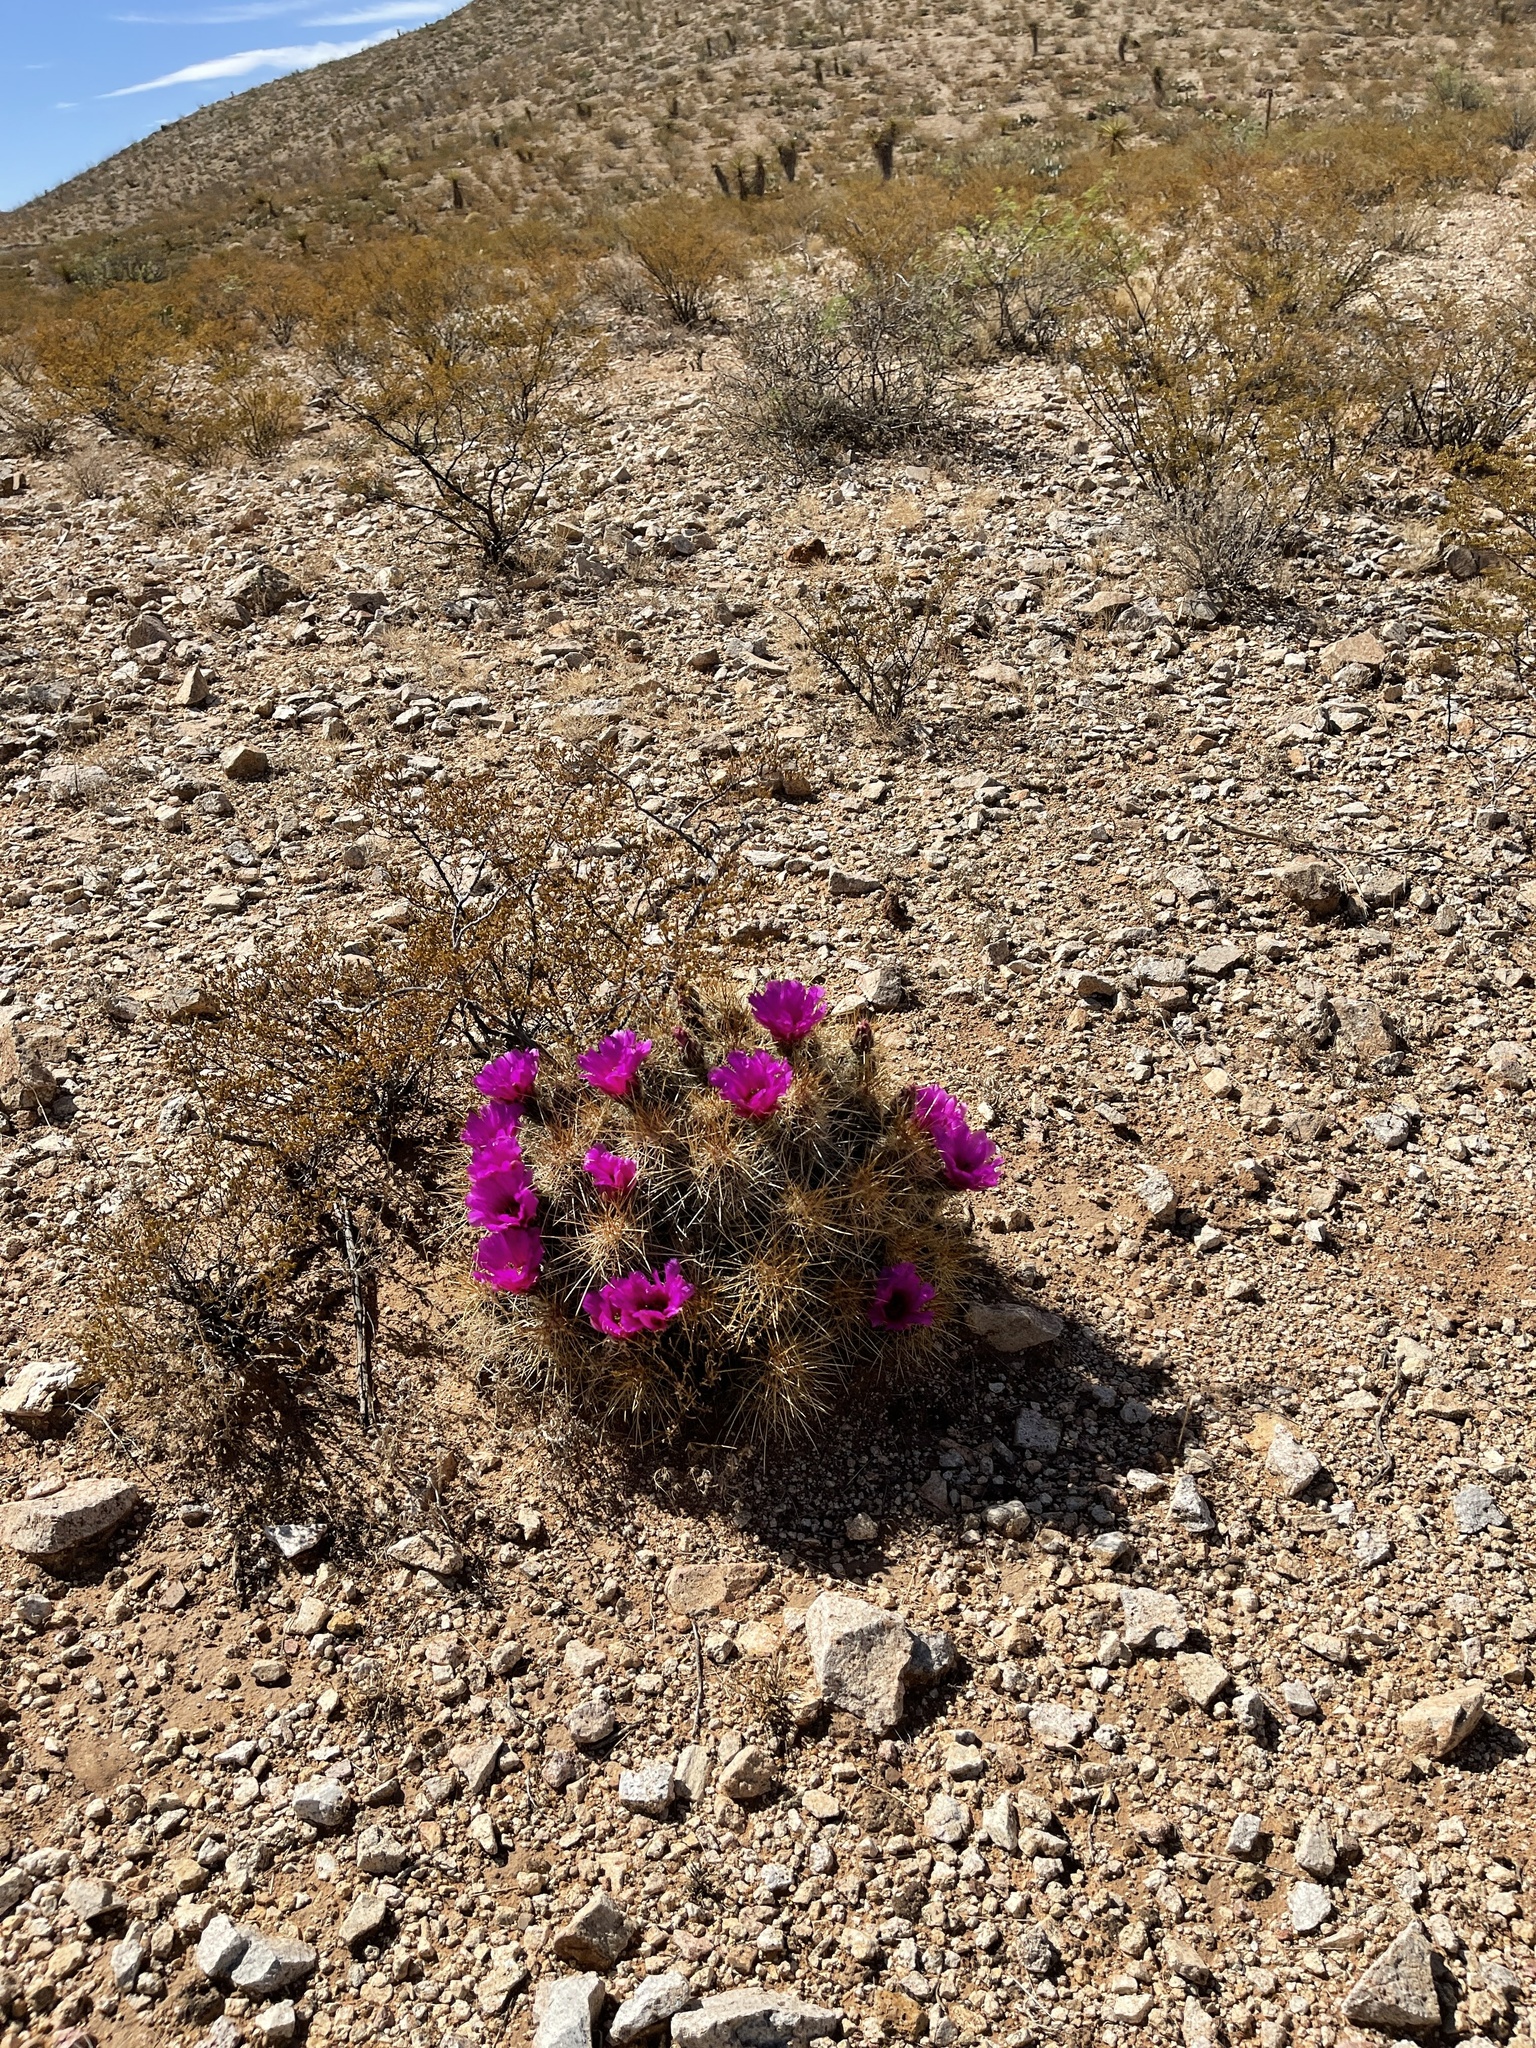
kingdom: Plantae
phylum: Tracheophyta
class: Magnoliopsida
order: Caryophyllales
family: Cactaceae
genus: Echinocereus
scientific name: Echinocereus stramineus
